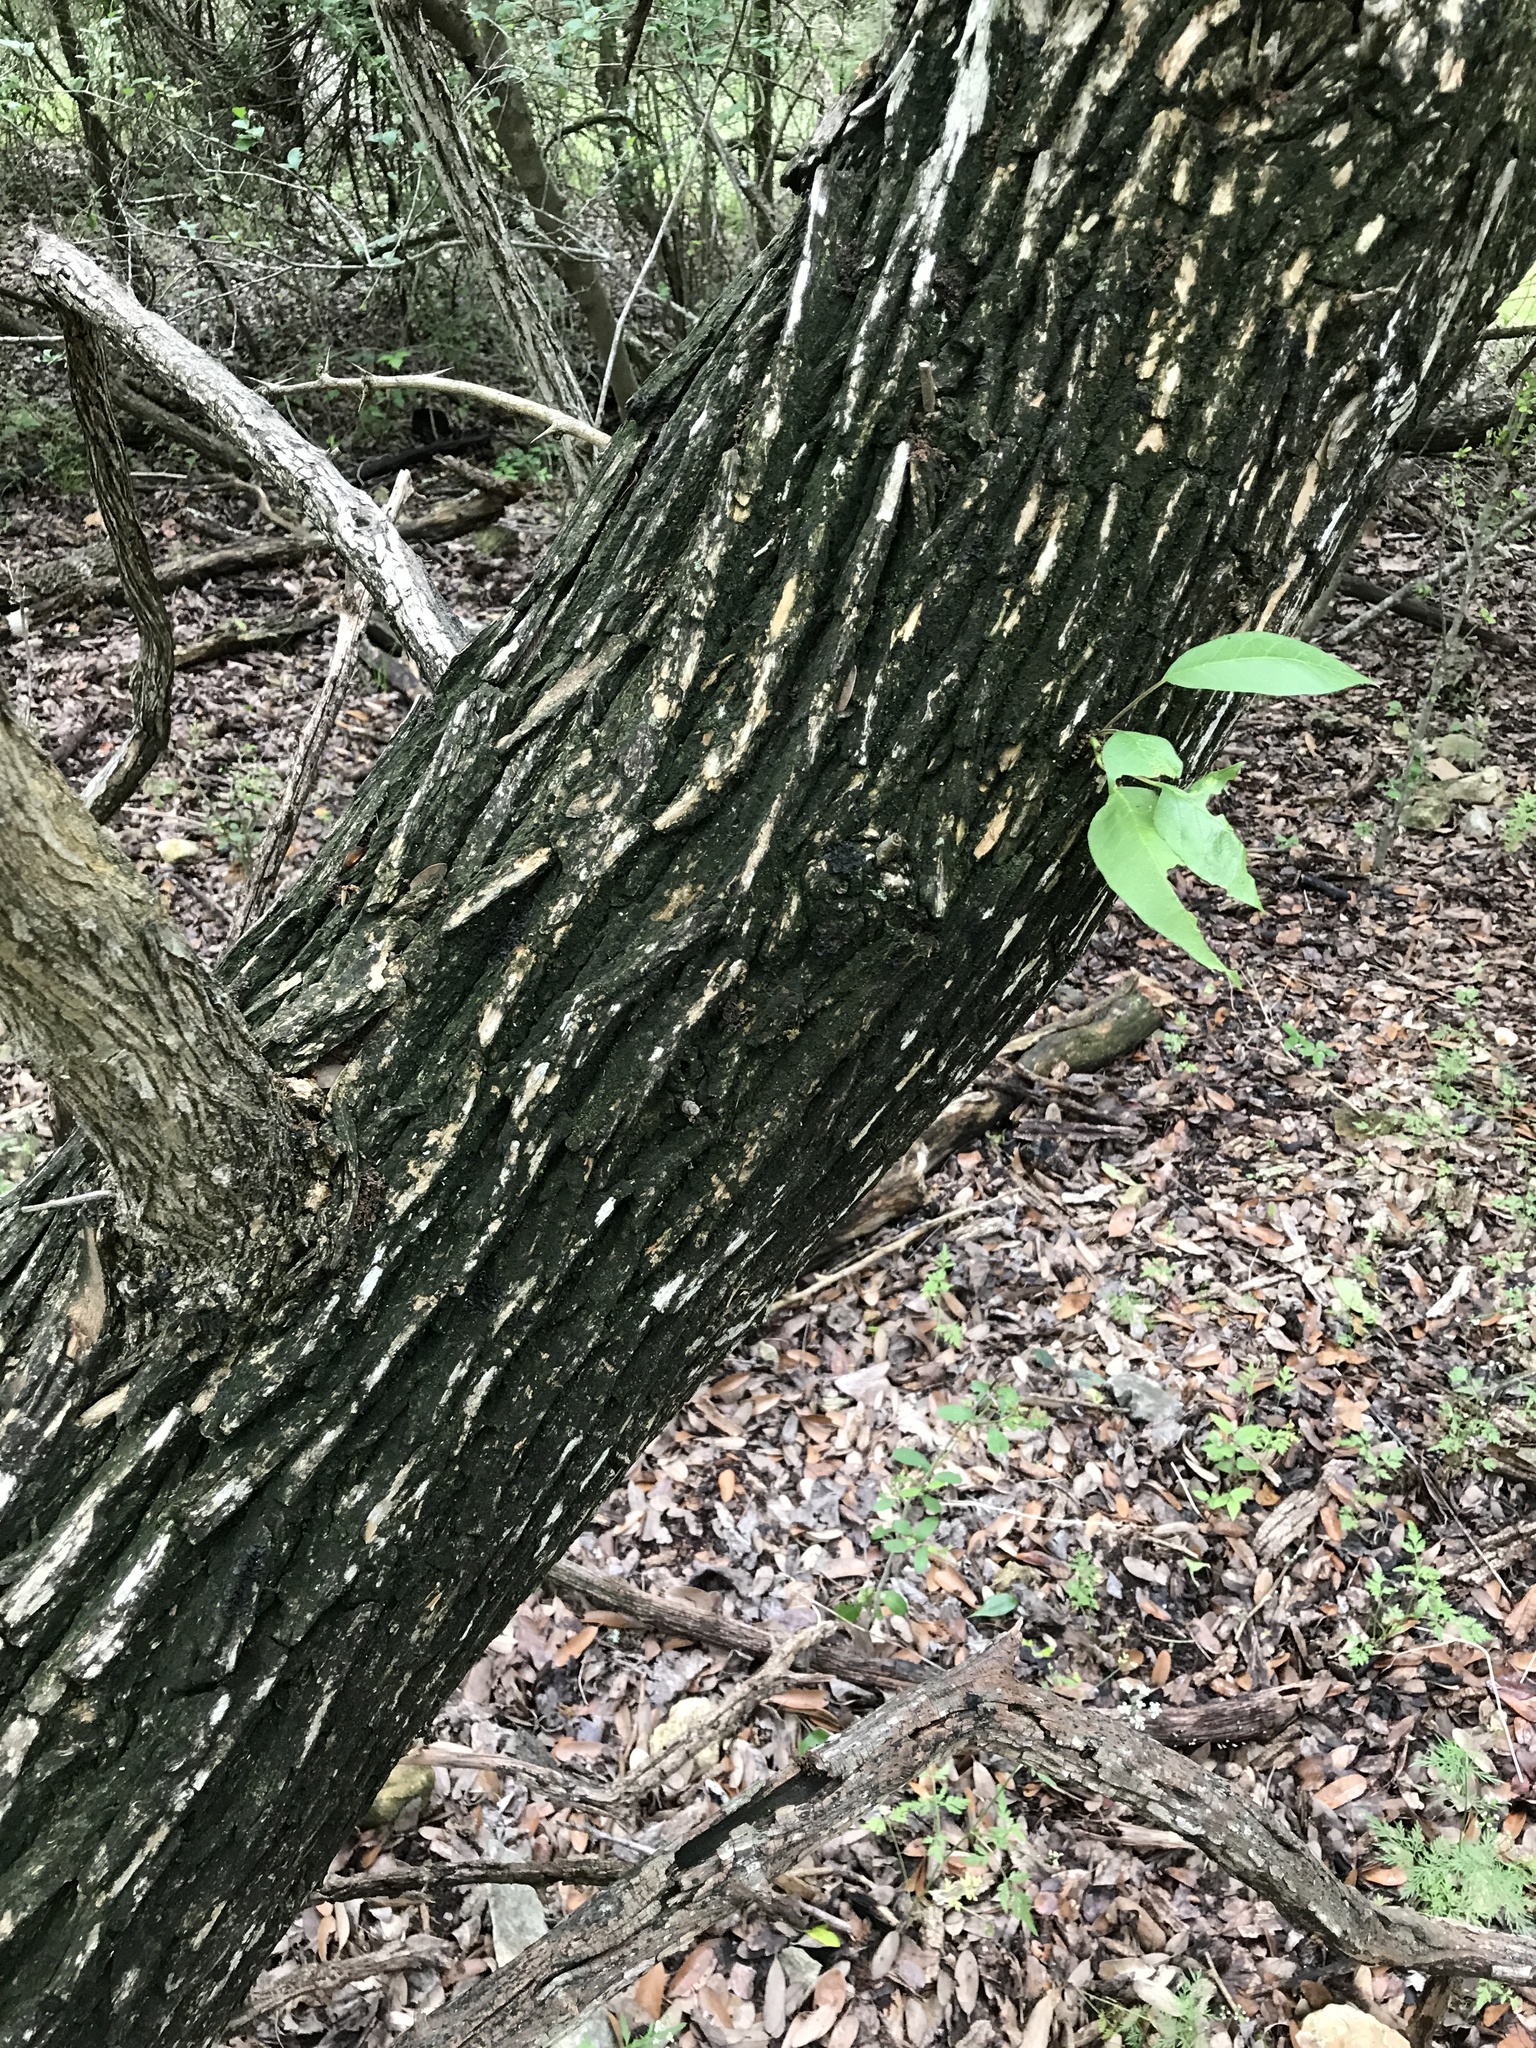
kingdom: Plantae
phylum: Tracheophyta
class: Magnoliopsida
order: Rosales
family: Moraceae
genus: Maclura
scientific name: Maclura pomifera
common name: Osage-orange
